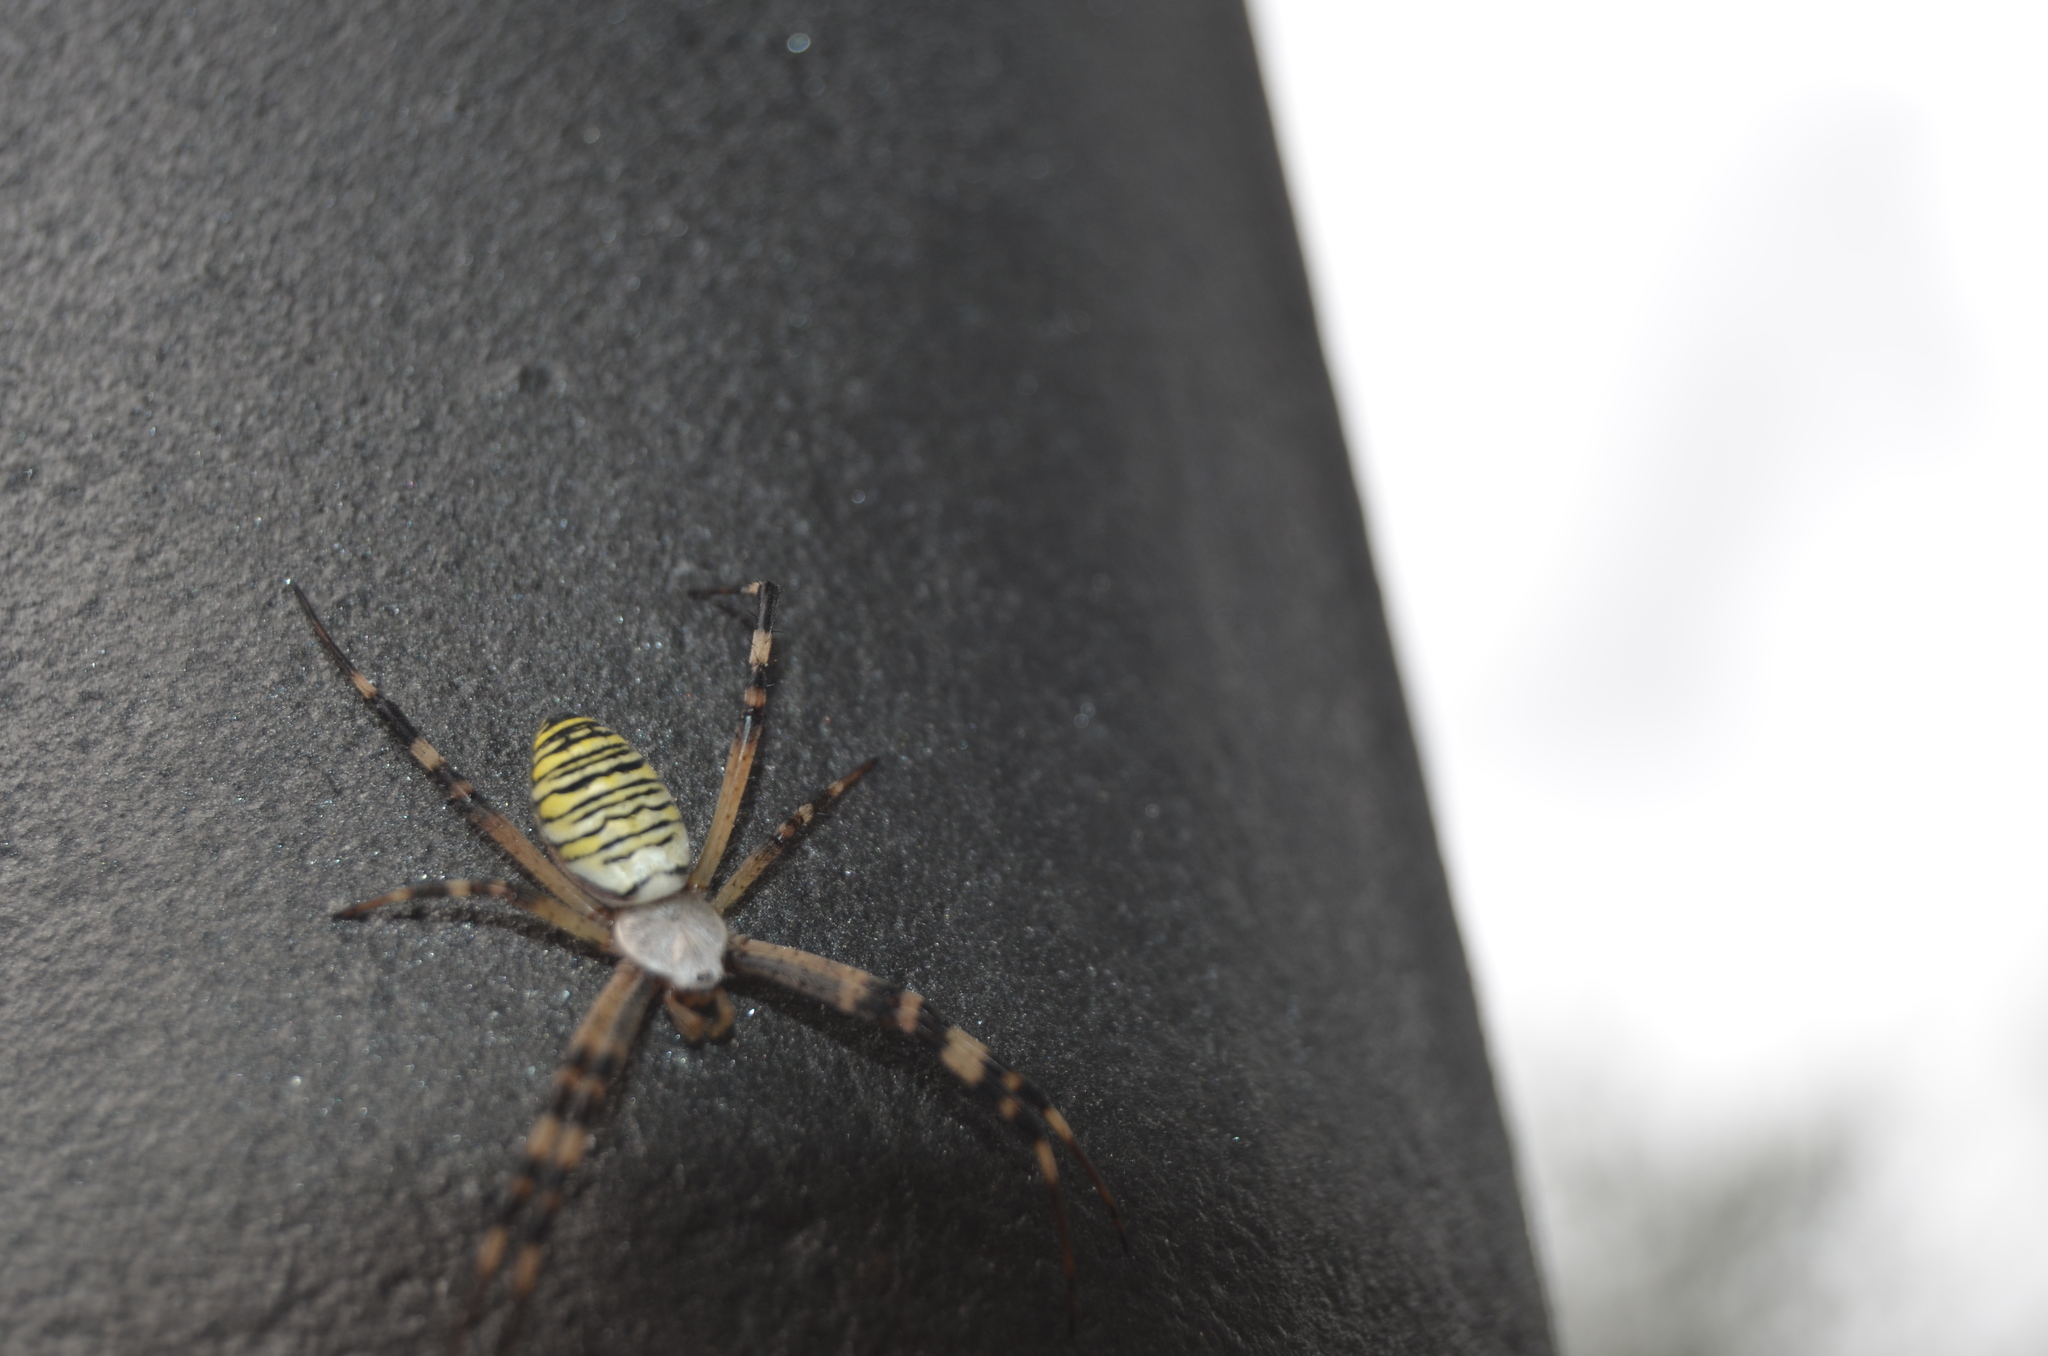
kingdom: Animalia
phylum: Arthropoda
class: Arachnida
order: Araneae
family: Araneidae
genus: Argiope
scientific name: Argiope bruennichi
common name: Wasp spider
